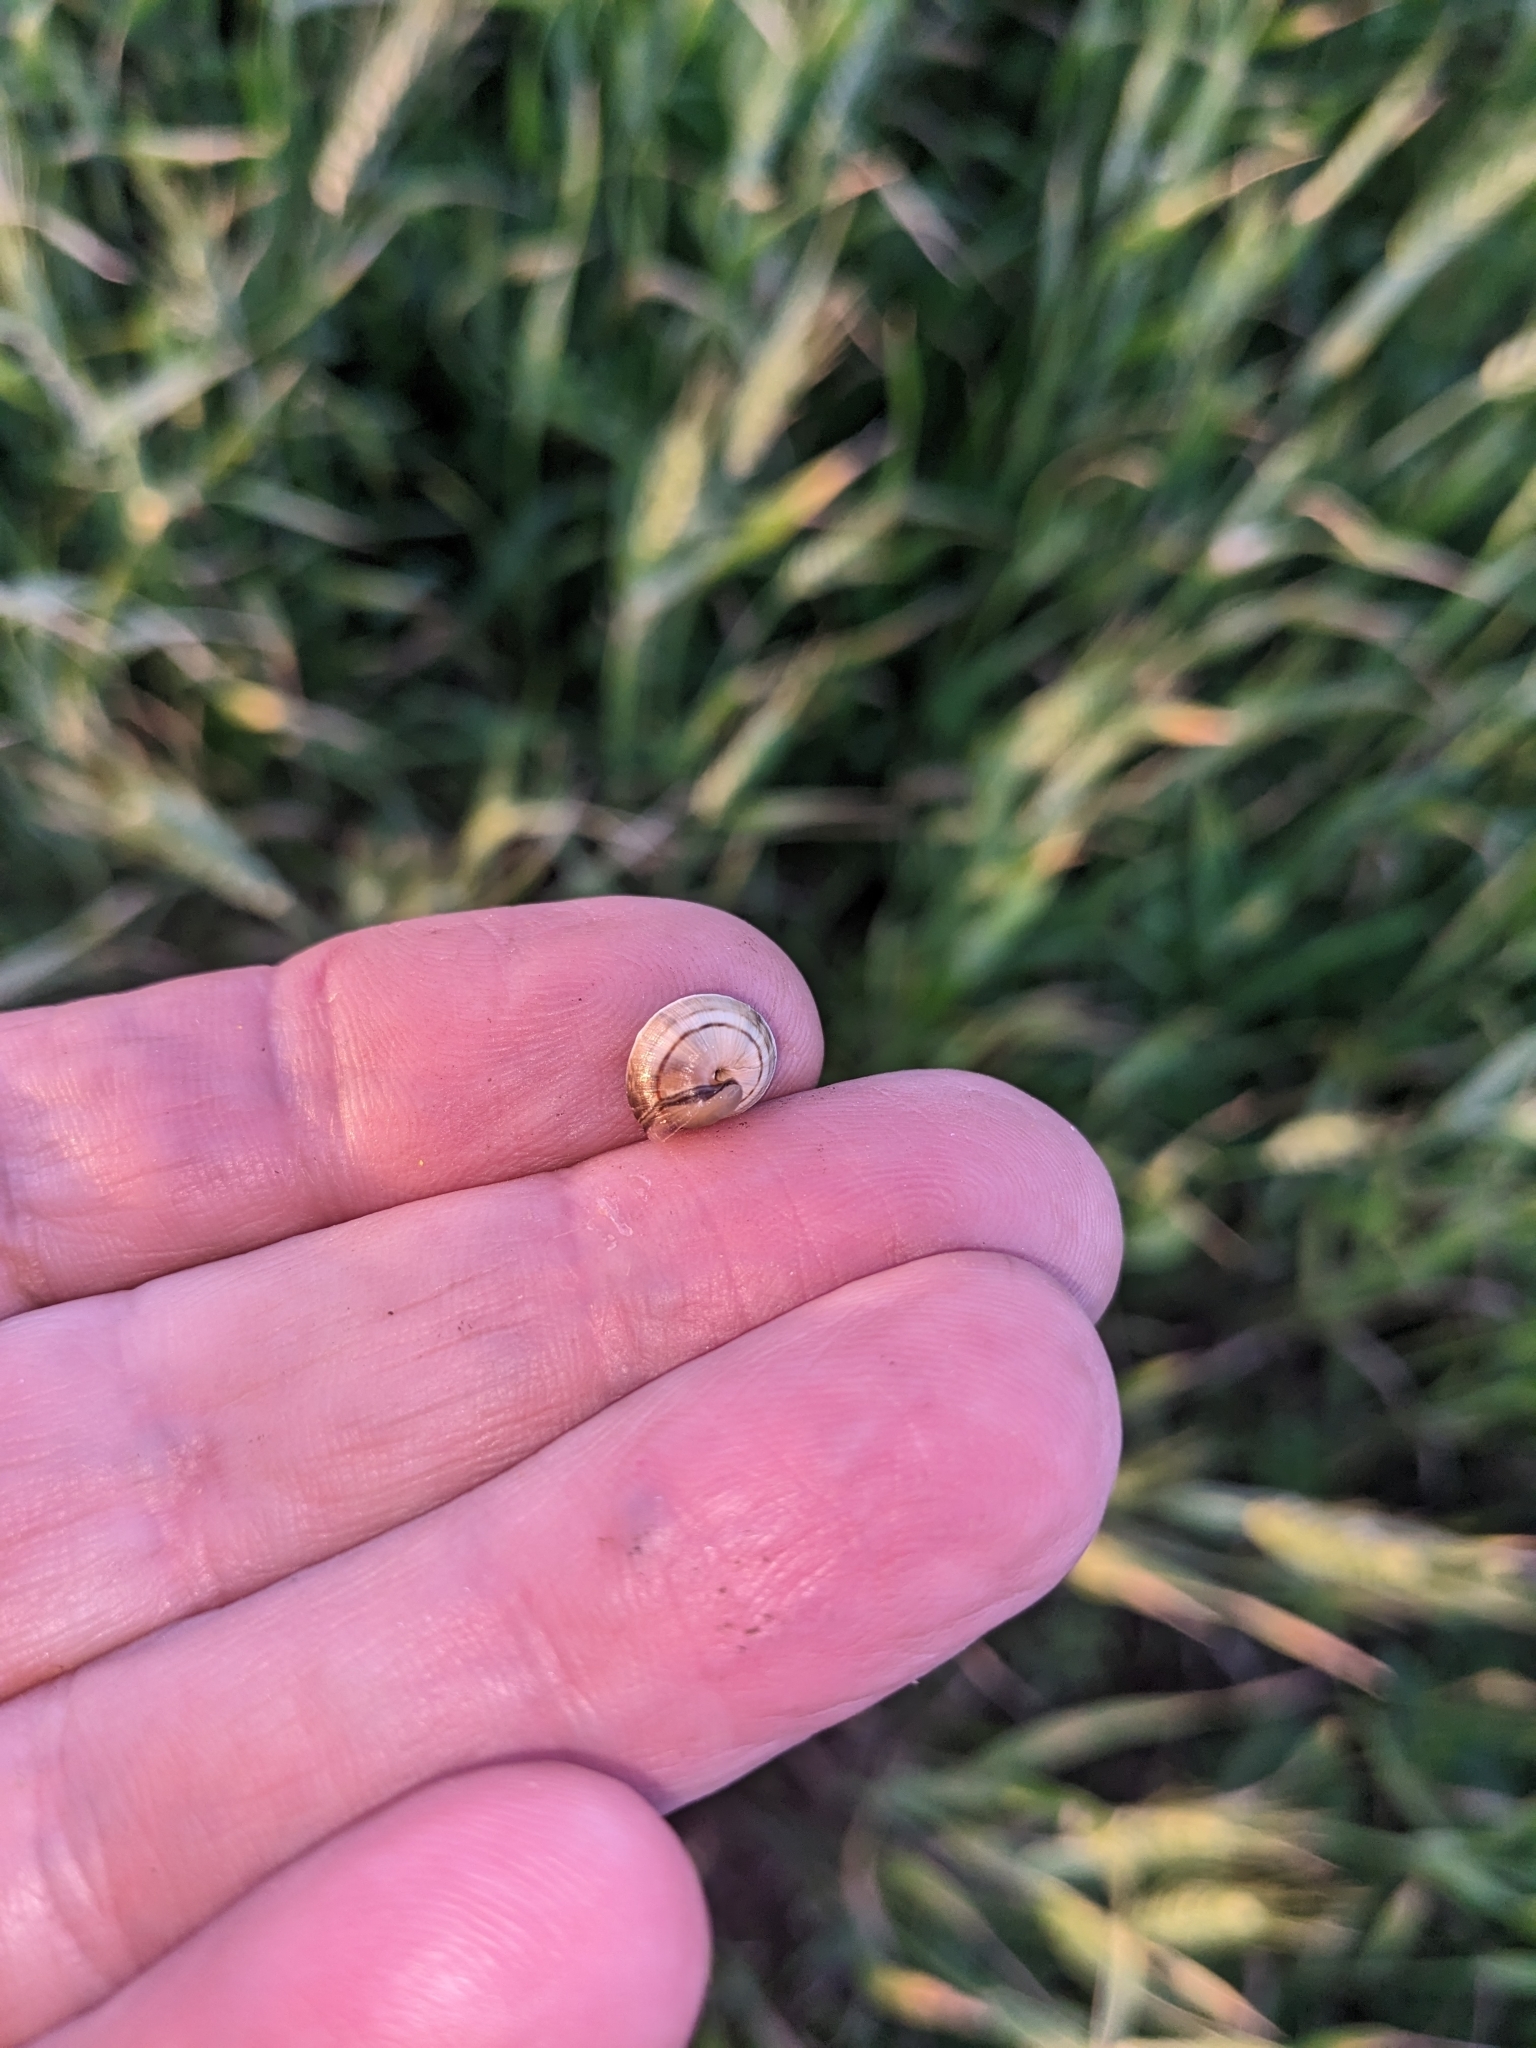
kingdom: Animalia
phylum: Mollusca
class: Gastropoda
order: Stylommatophora
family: Helicidae
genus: Theba
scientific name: Theba pisana
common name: White snail
